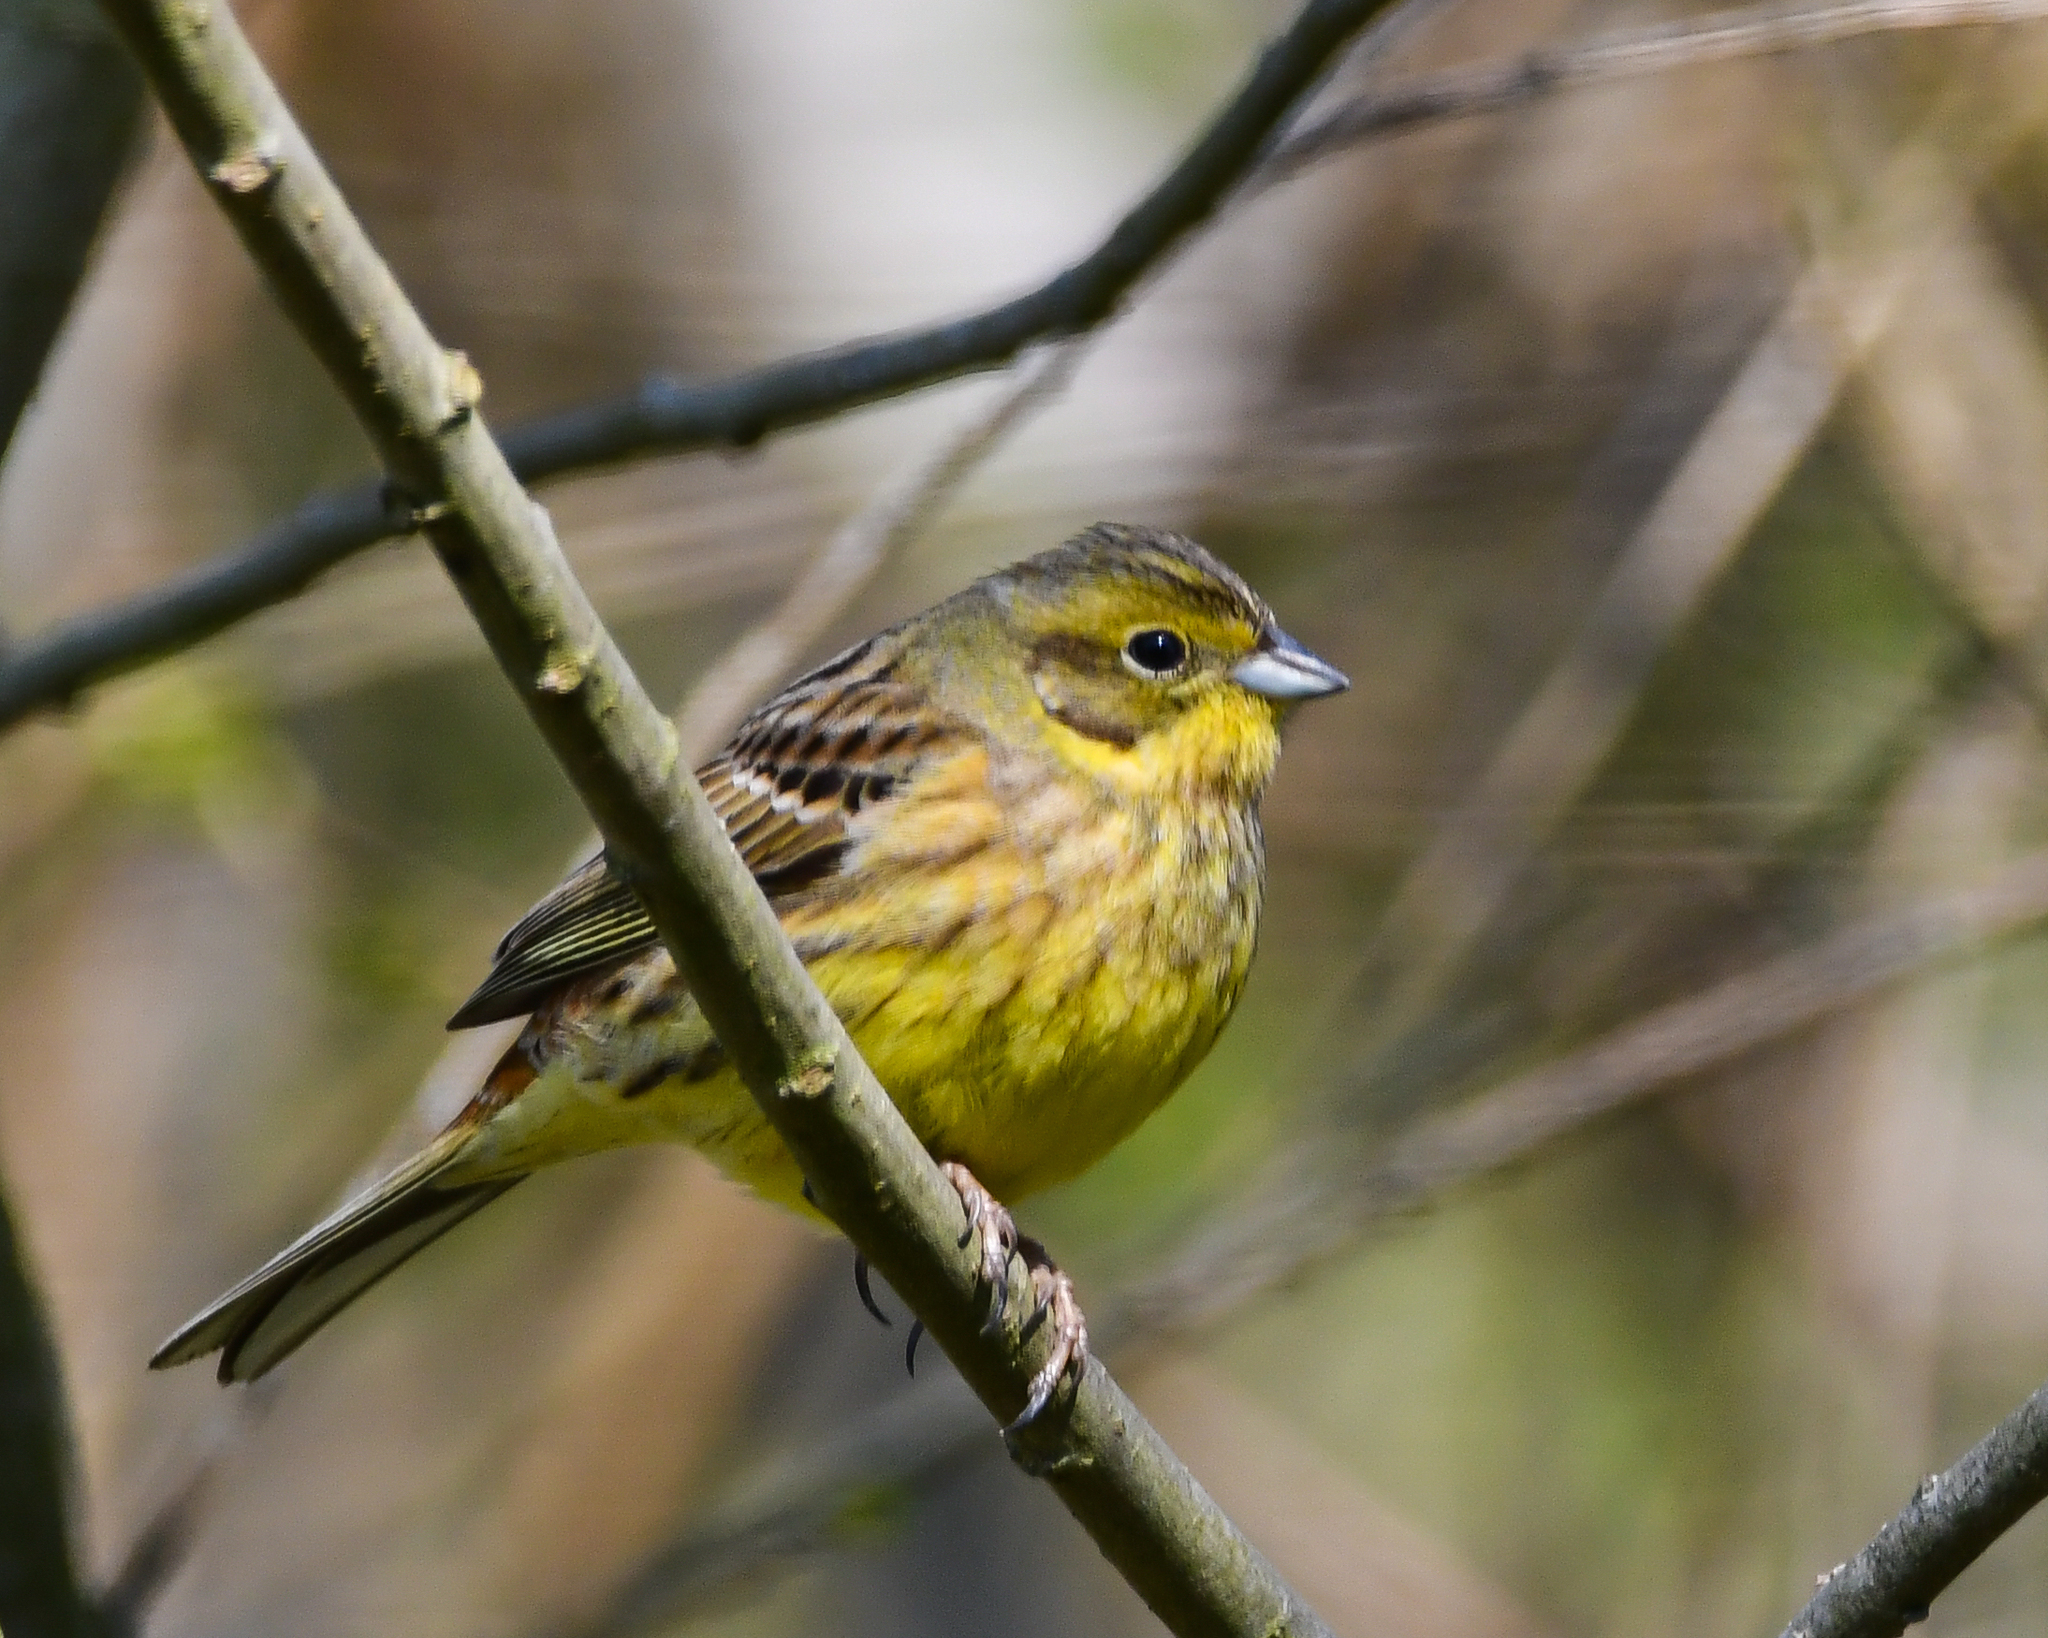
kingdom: Animalia
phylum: Chordata
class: Aves
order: Passeriformes
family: Emberizidae
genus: Emberiza
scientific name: Emberiza citrinella
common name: Yellowhammer
